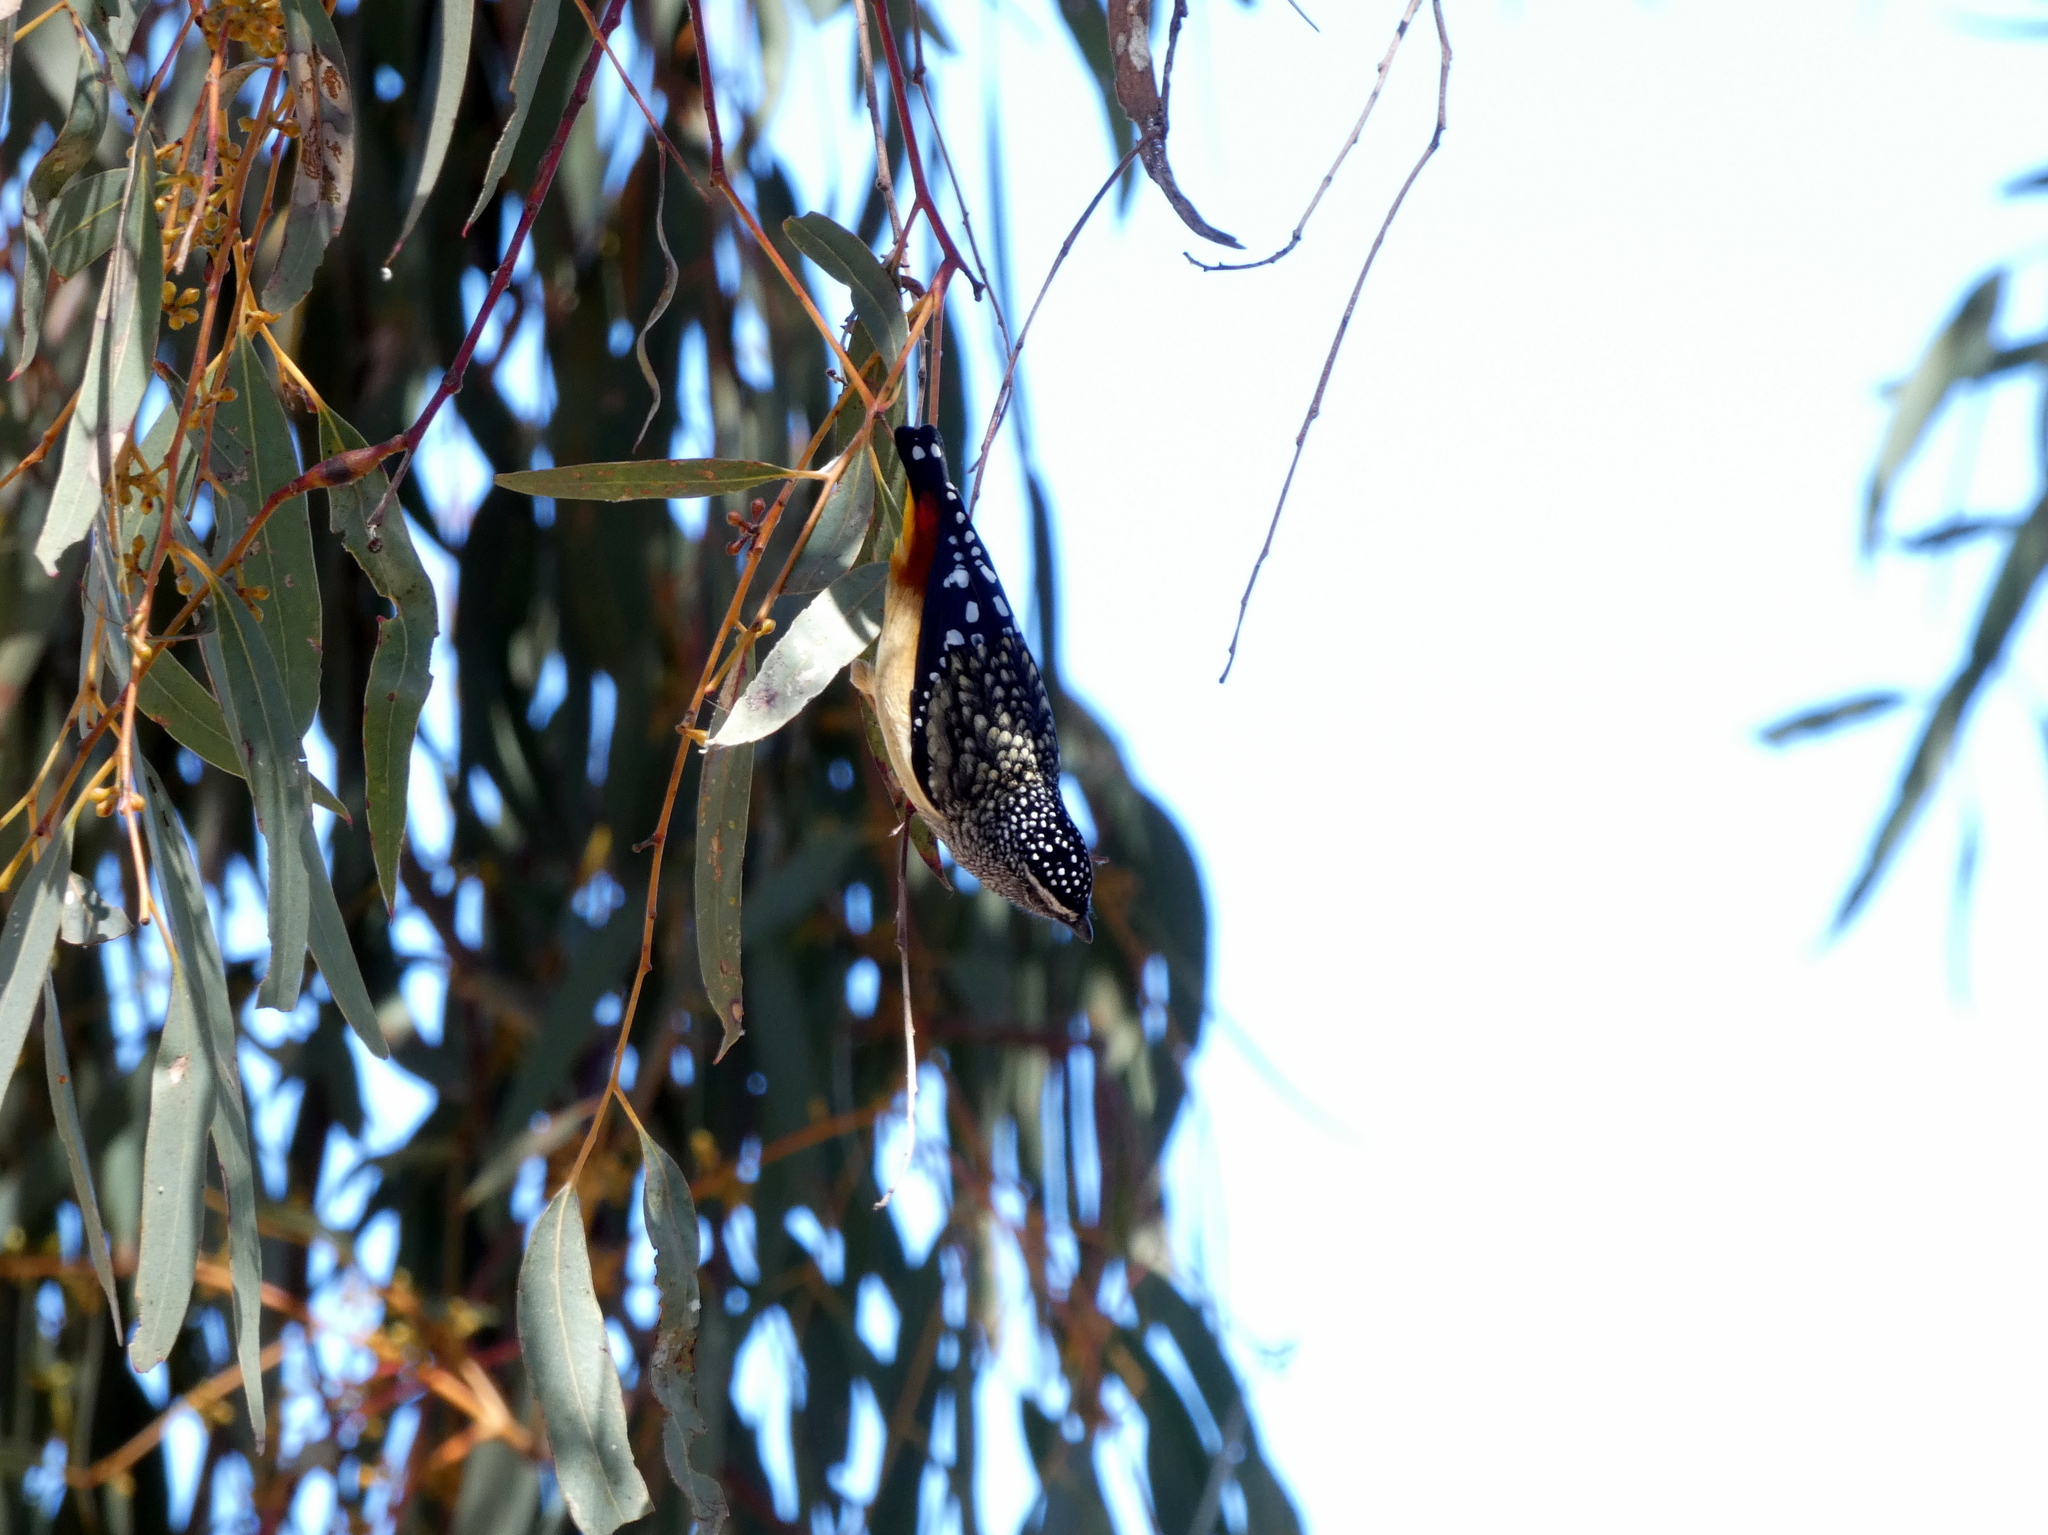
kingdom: Animalia
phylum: Chordata
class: Aves
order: Passeriformes
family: Pardalotidae
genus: Pardalotus
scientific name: Pardalotus punctatus
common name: Spotted pardalote
